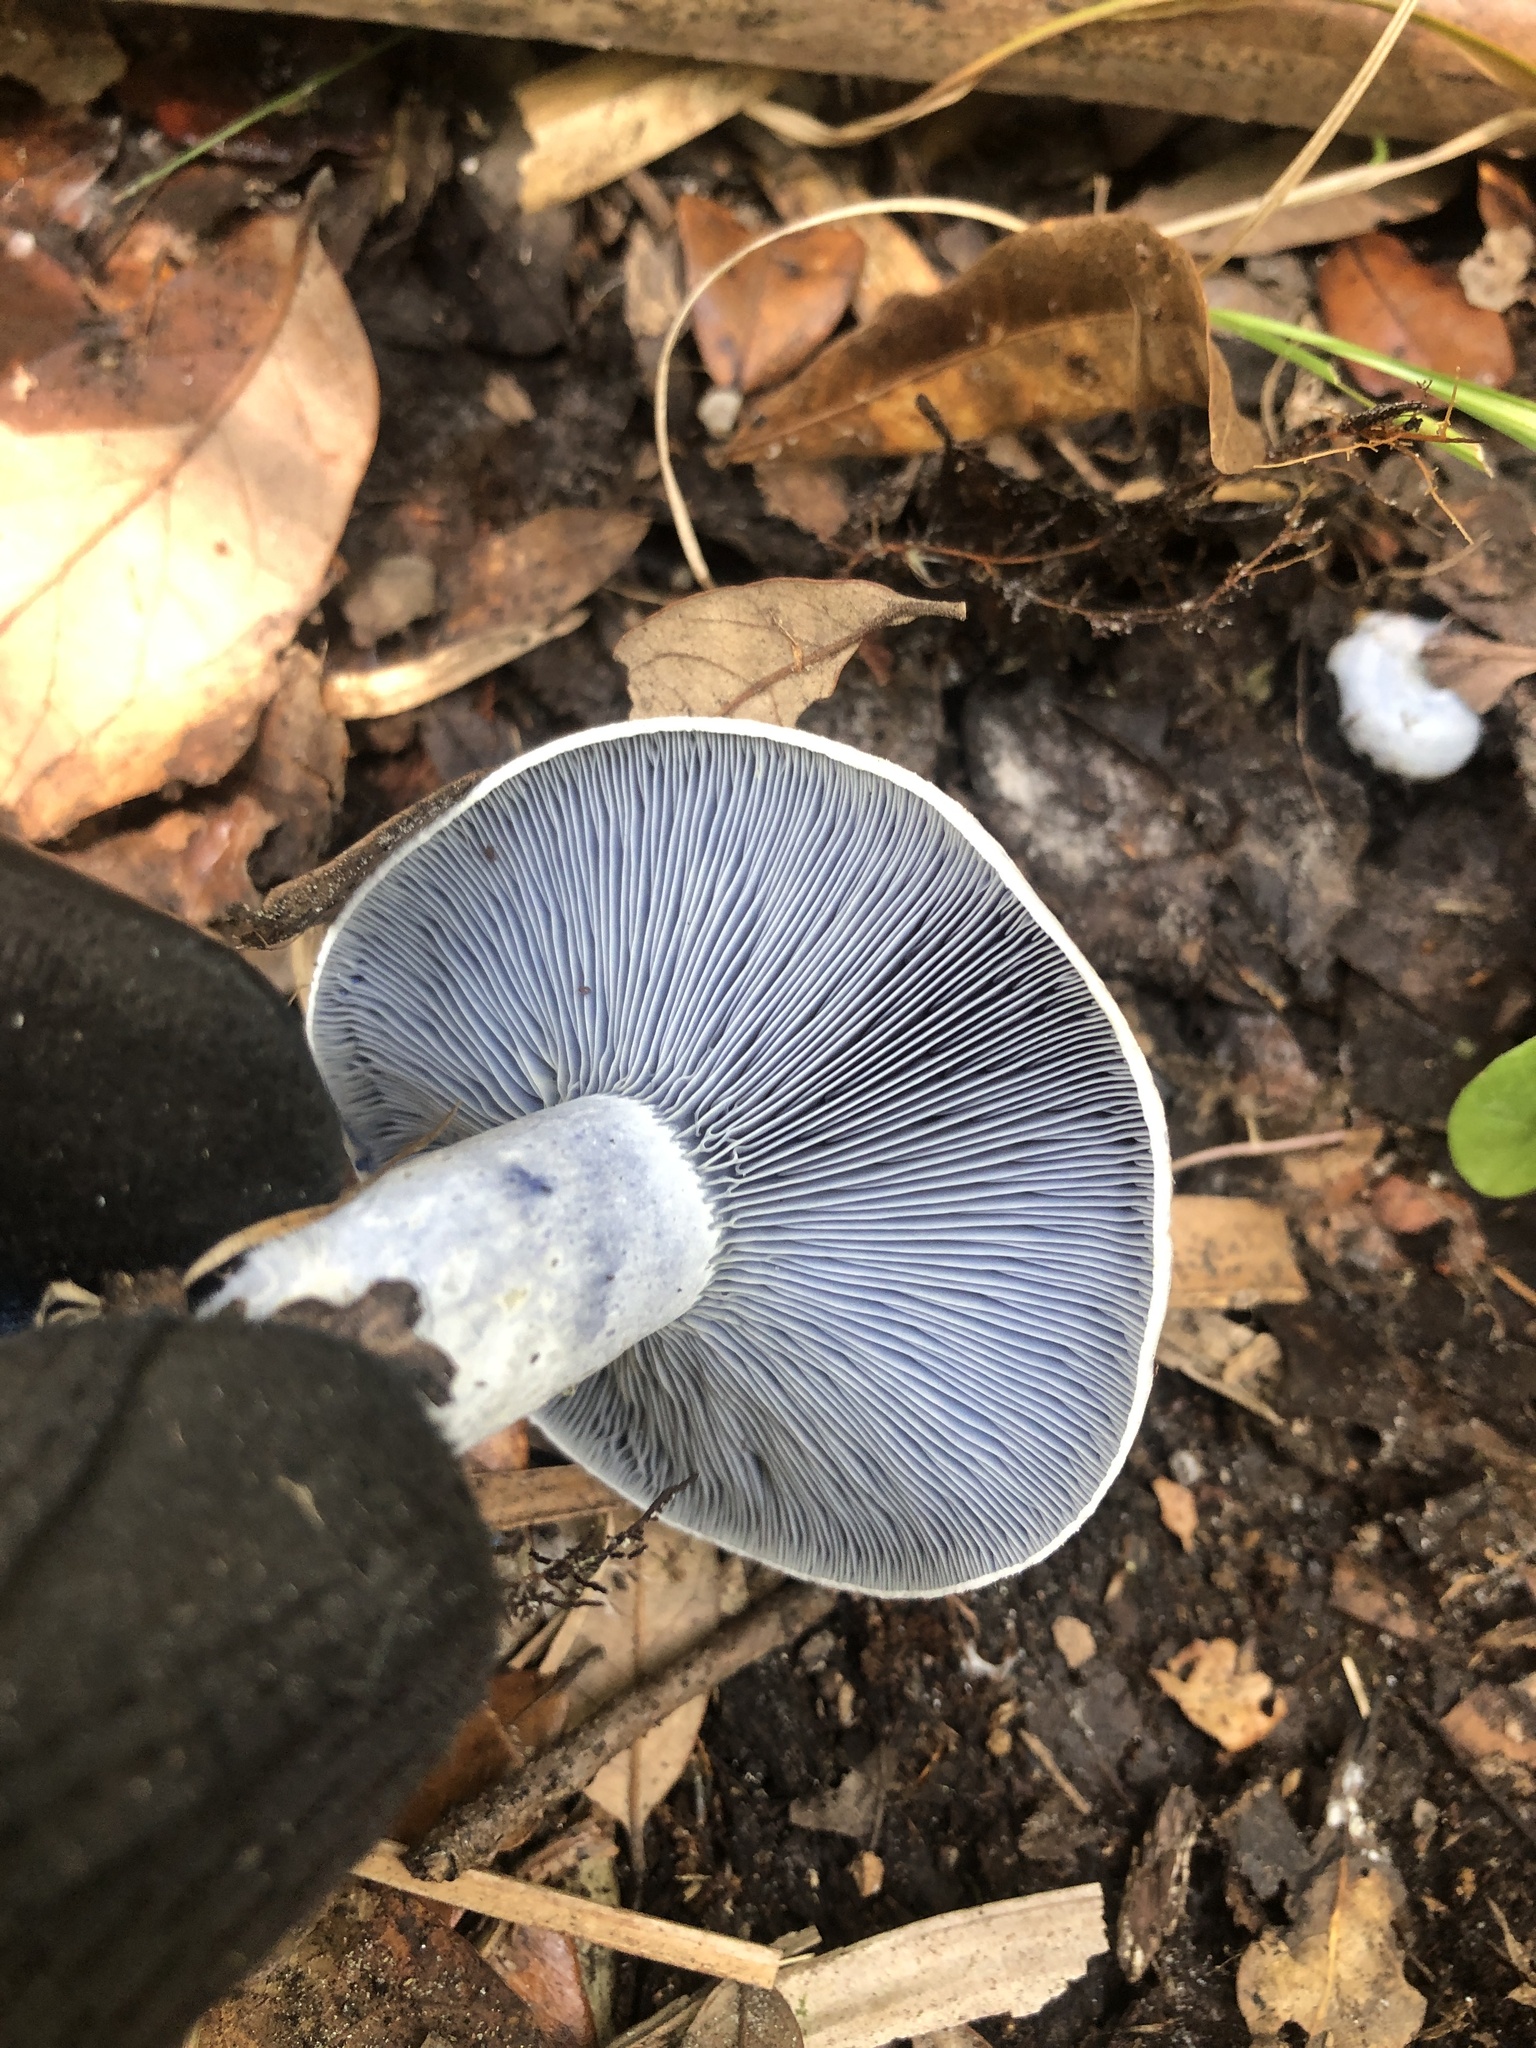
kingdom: Fungi
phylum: Basidiomycota
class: Agaricomycetes
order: Russulales
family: Russulaceae
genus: Lactarius
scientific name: Lactarius indigo
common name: Indigo milk cap
